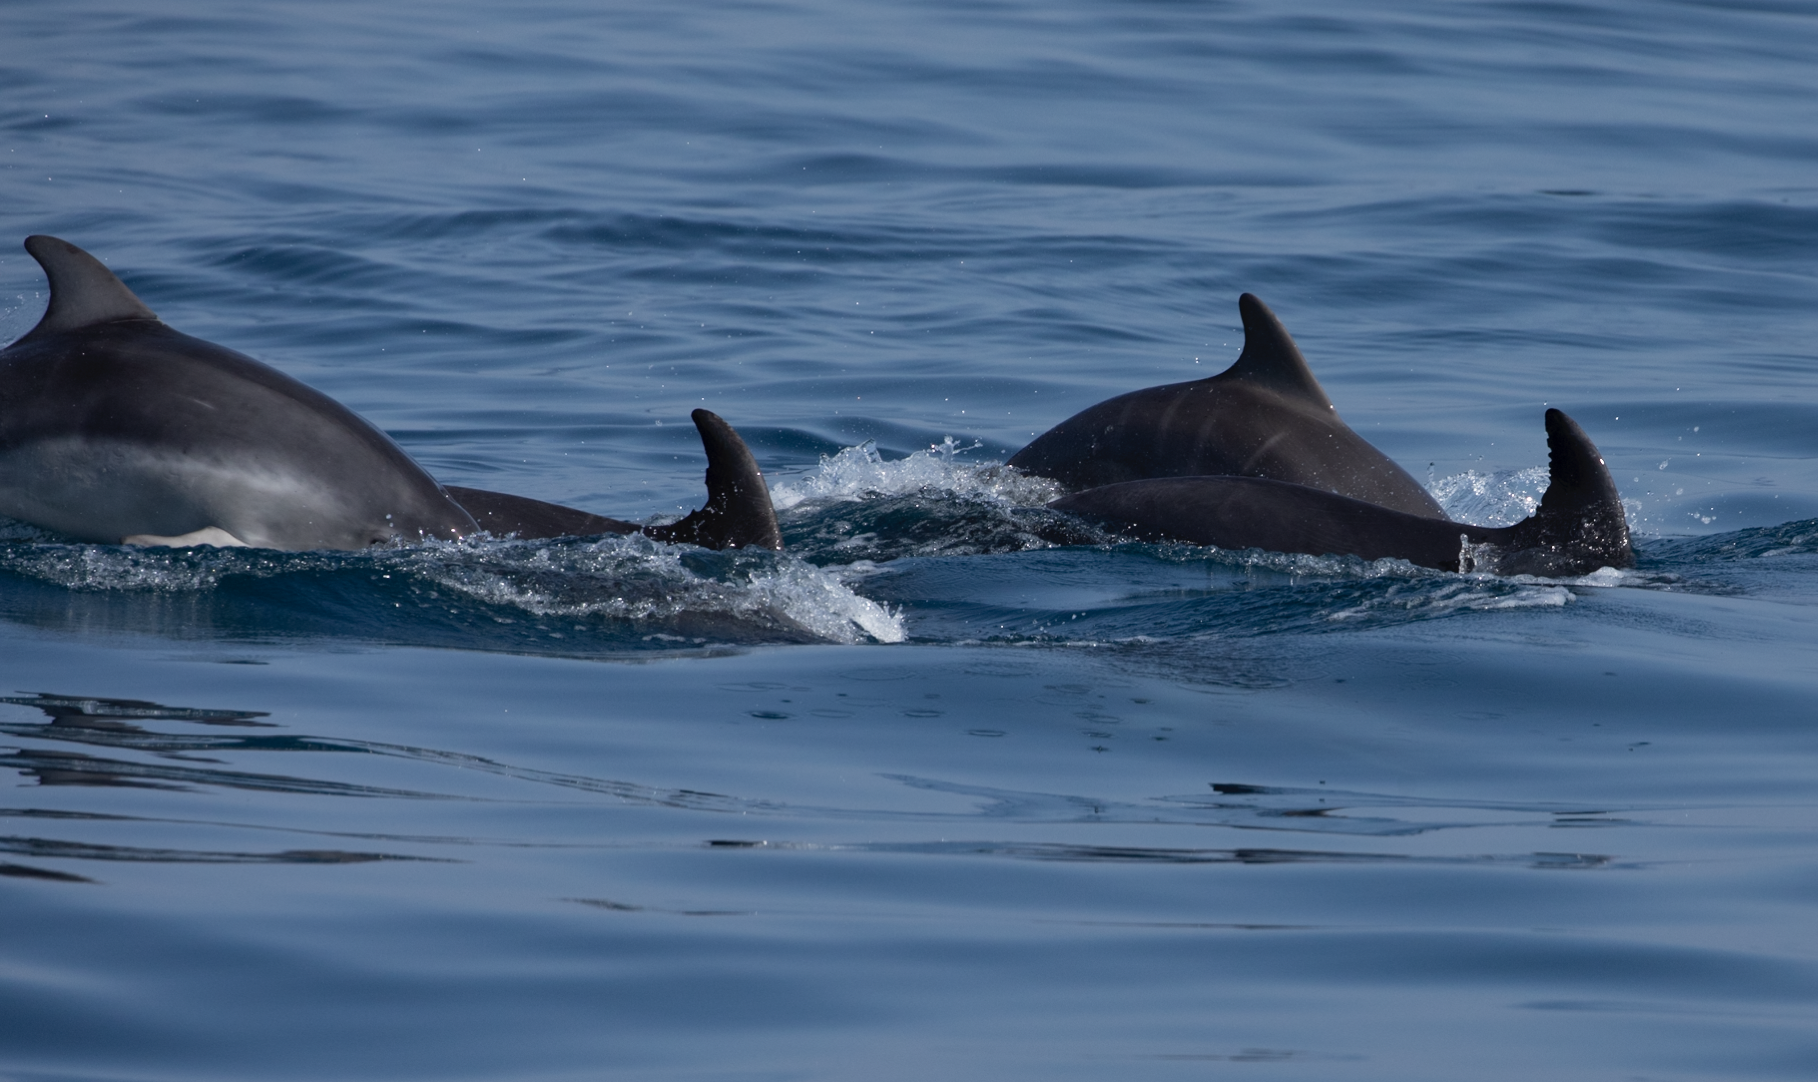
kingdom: Animalia
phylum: Chordata
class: Mammalia
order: Cetacea
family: Delphinidae
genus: Tursiops
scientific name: Tursiops truncatus
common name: Bottlenose dolphin
